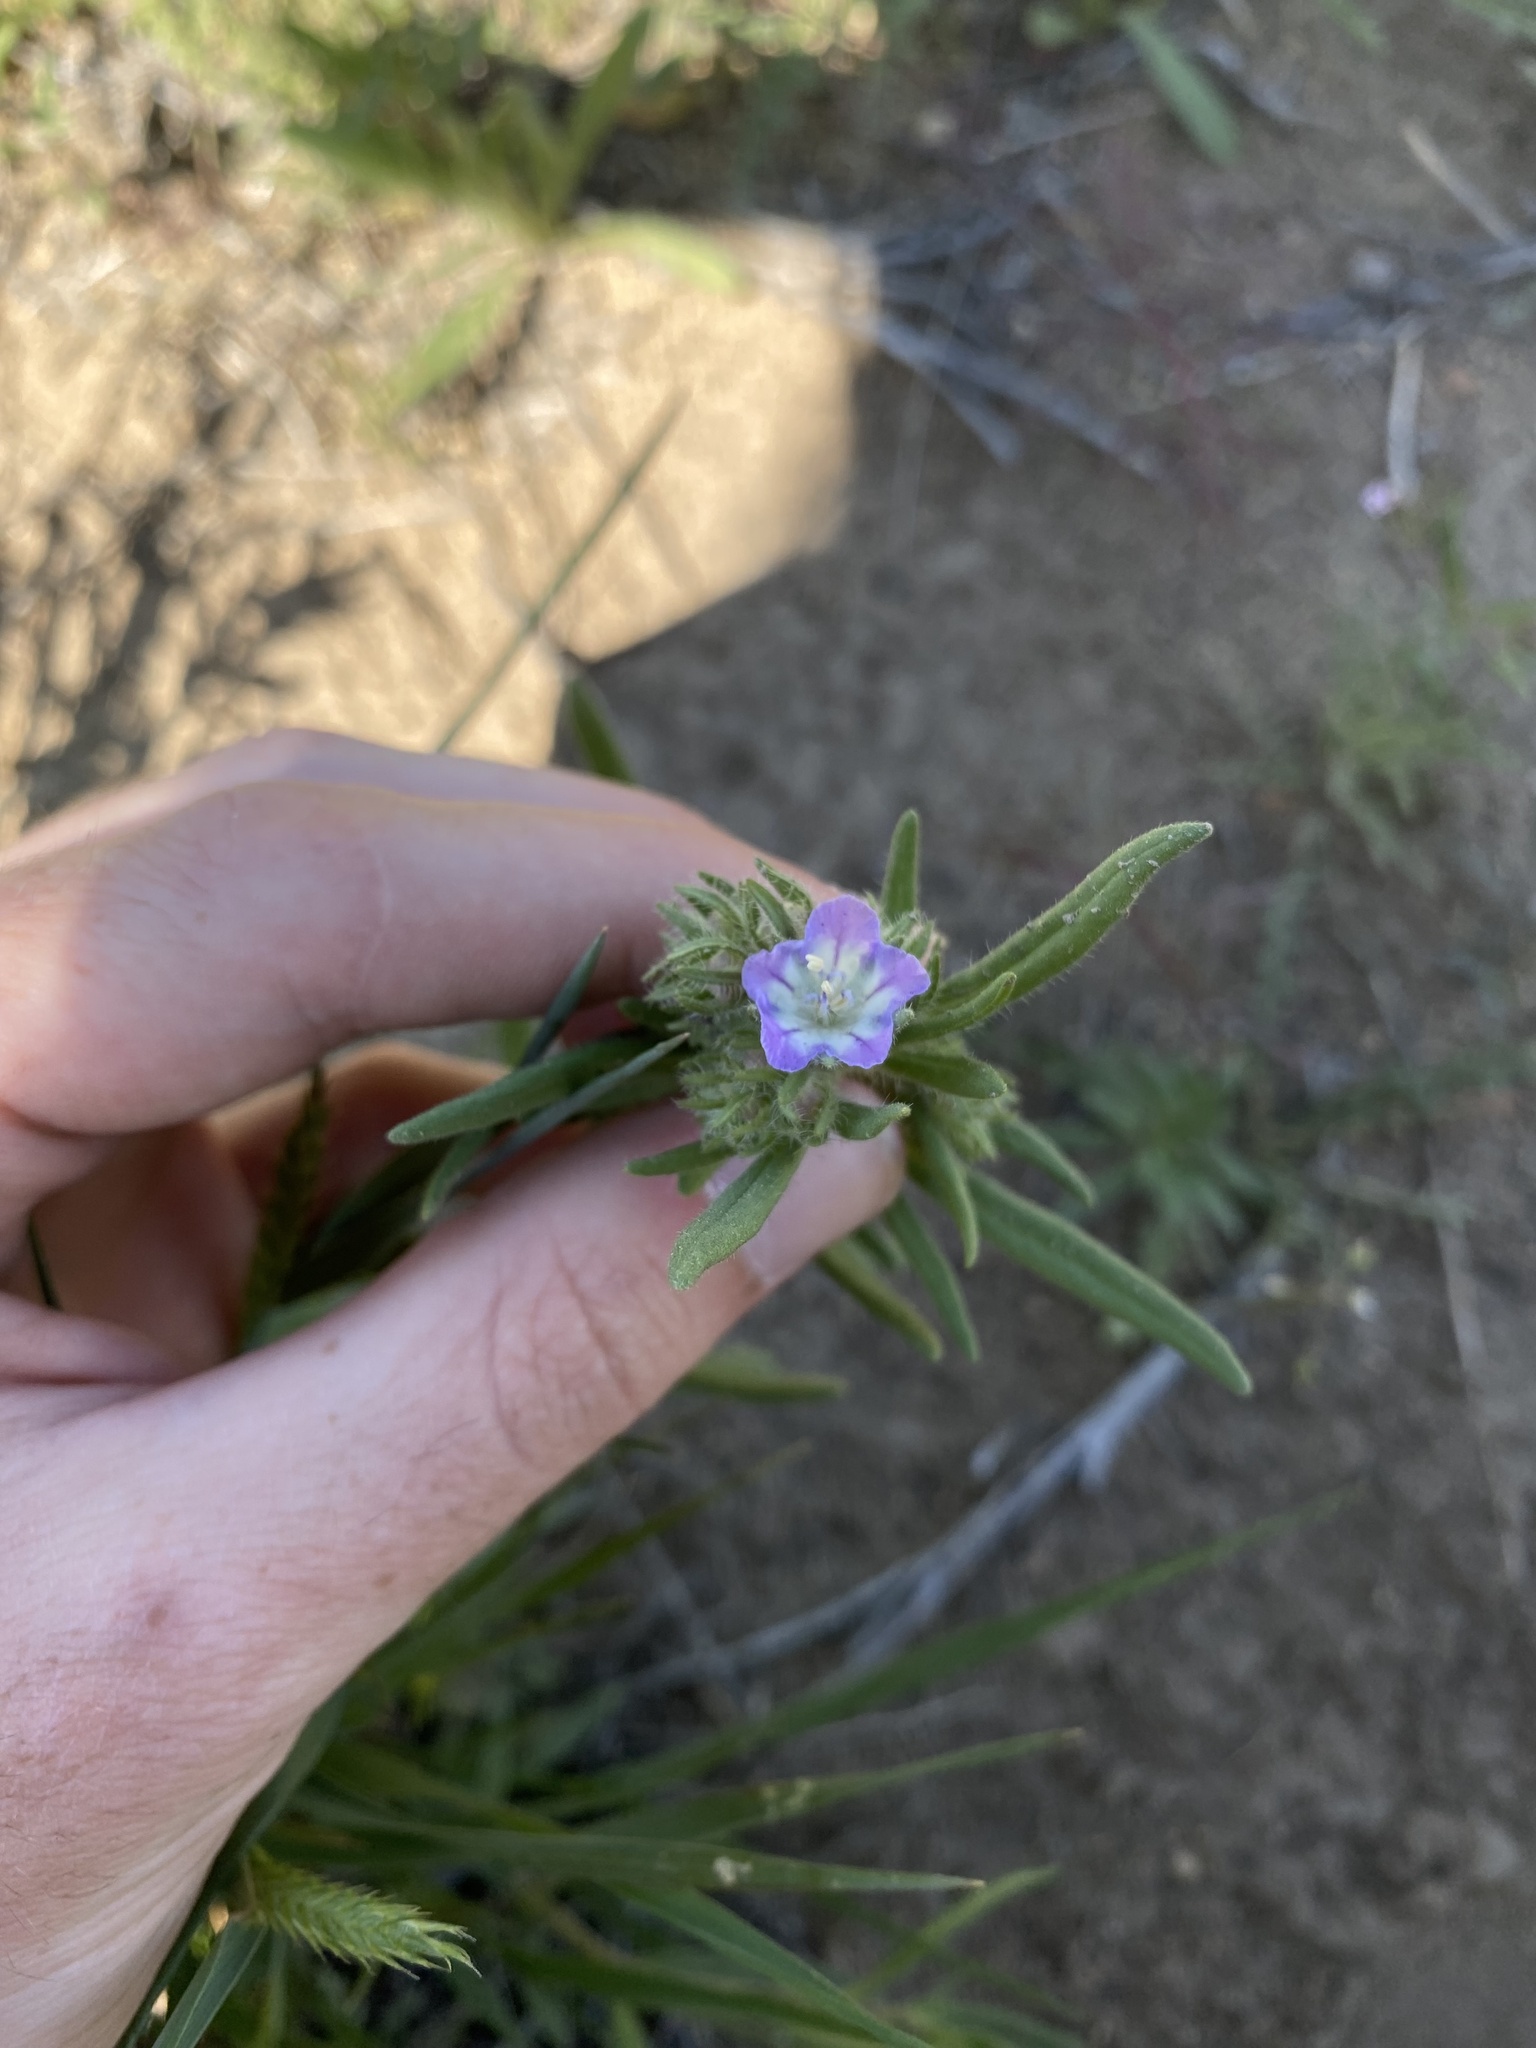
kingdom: Plantae
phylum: Tracheophyta
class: Magnoliopsida
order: Boraginales
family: Hydrophyllaceae
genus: Phacelia
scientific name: Phacelia linearis
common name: Linear-leaved phacelia
